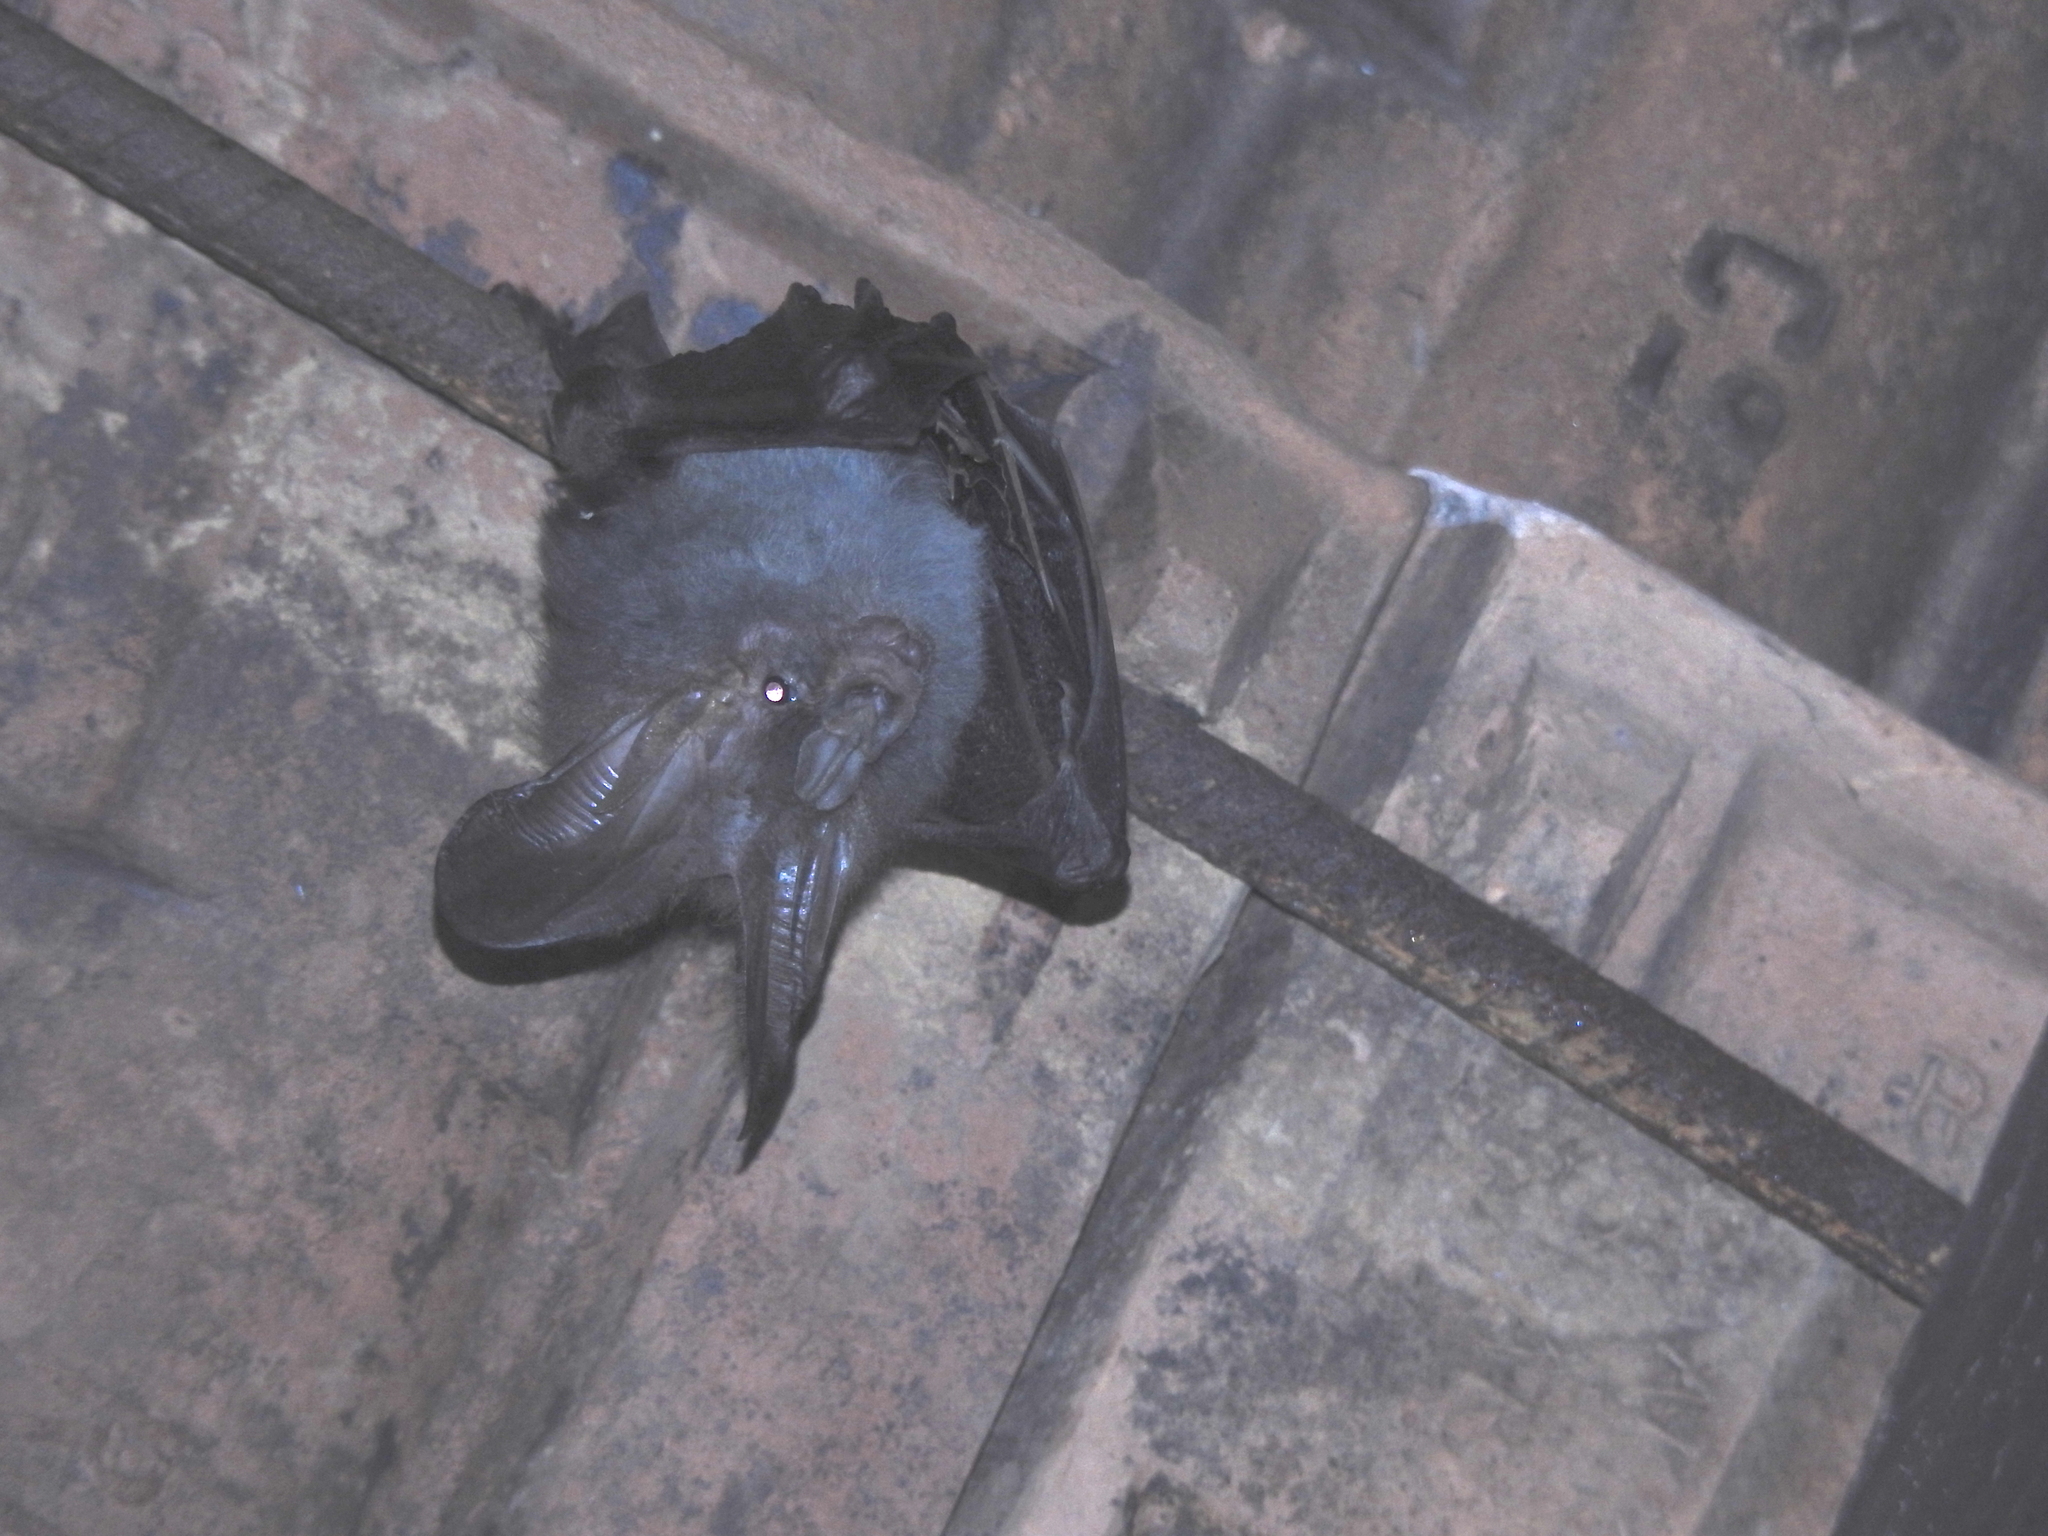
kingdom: Animalia
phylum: Chordata
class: Mammalia
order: Chiroptera
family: Megadermatidae
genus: Megaderma
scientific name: Megaderma spasma
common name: Lesser false vampire bat
